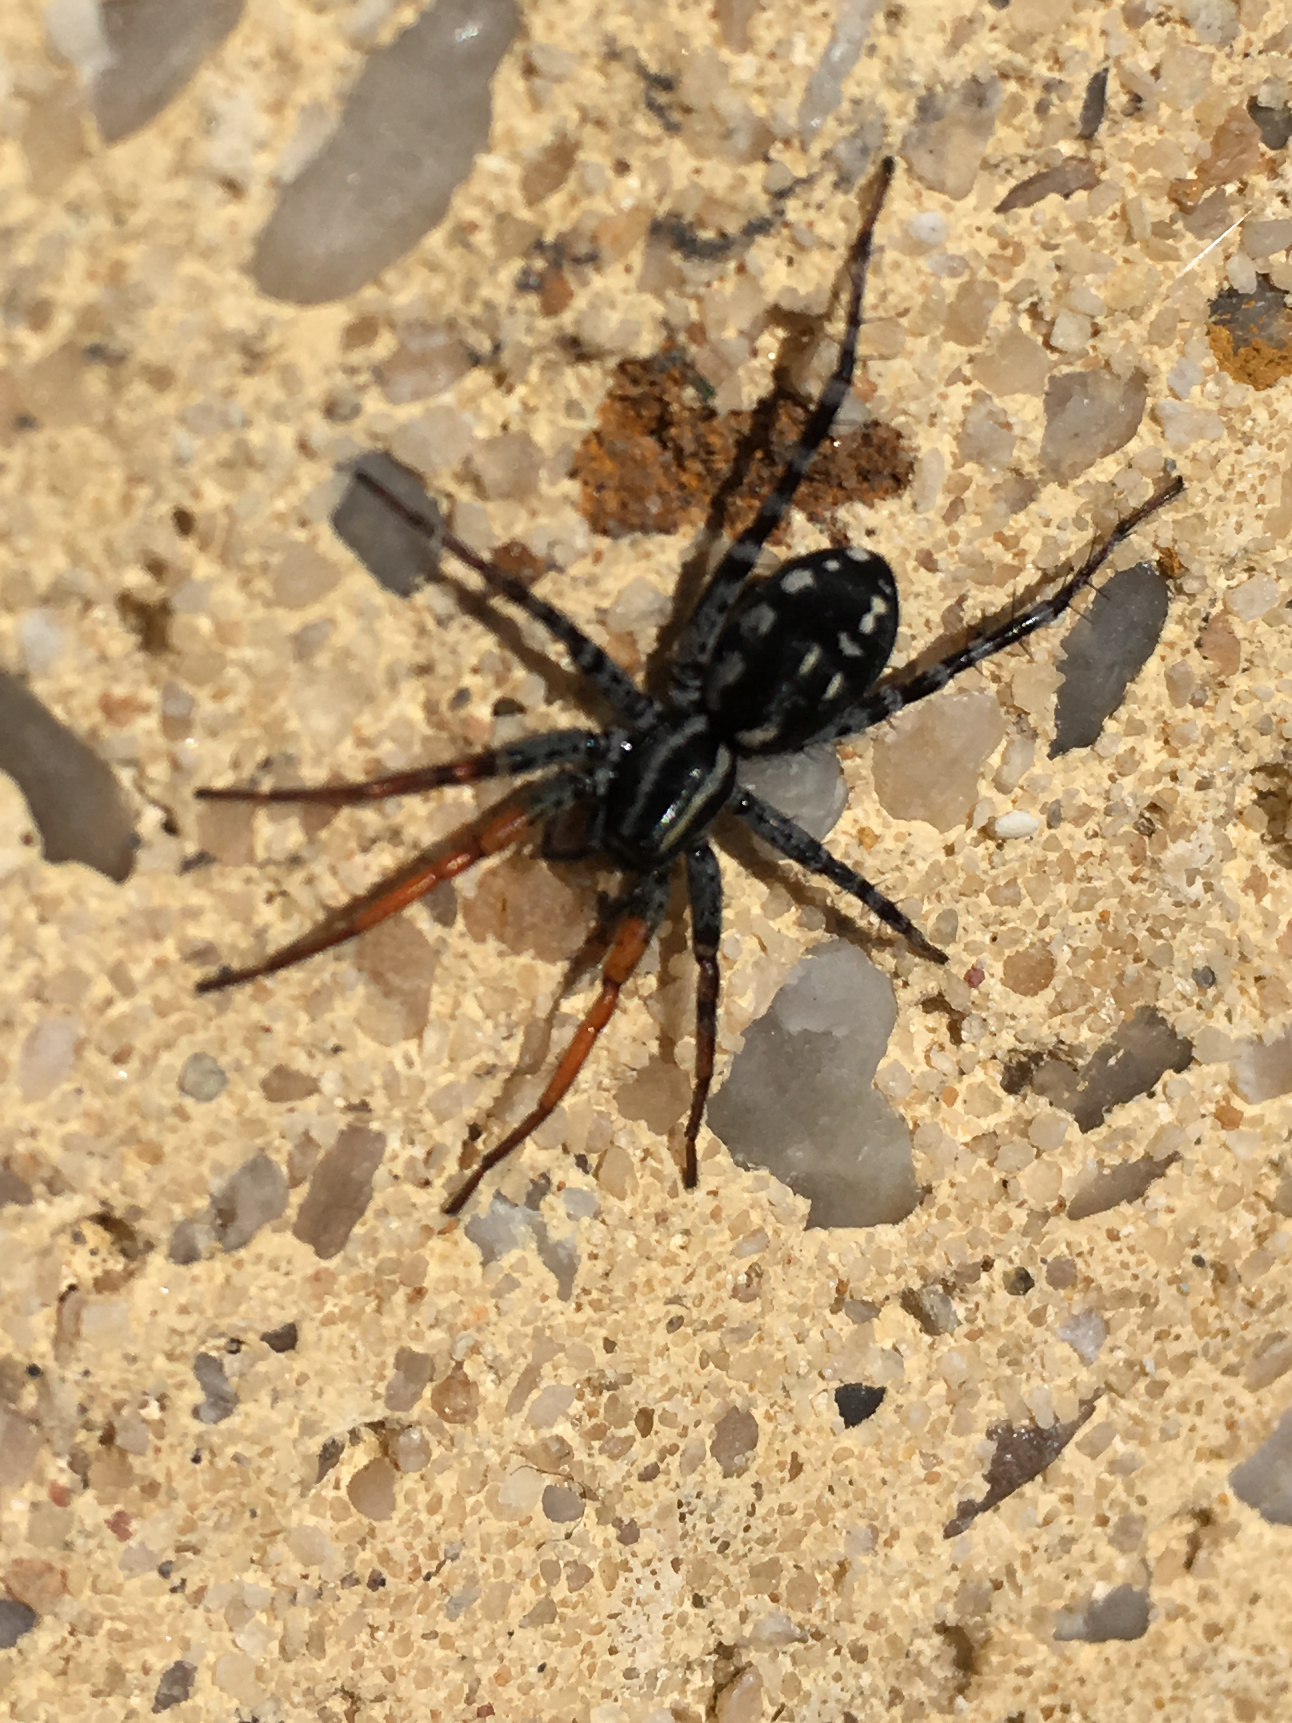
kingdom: Animalia
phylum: Arthropoda
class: Arachnida
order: Araneae
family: Corinnidae
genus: Nyssus
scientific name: Nyssus coloripes
